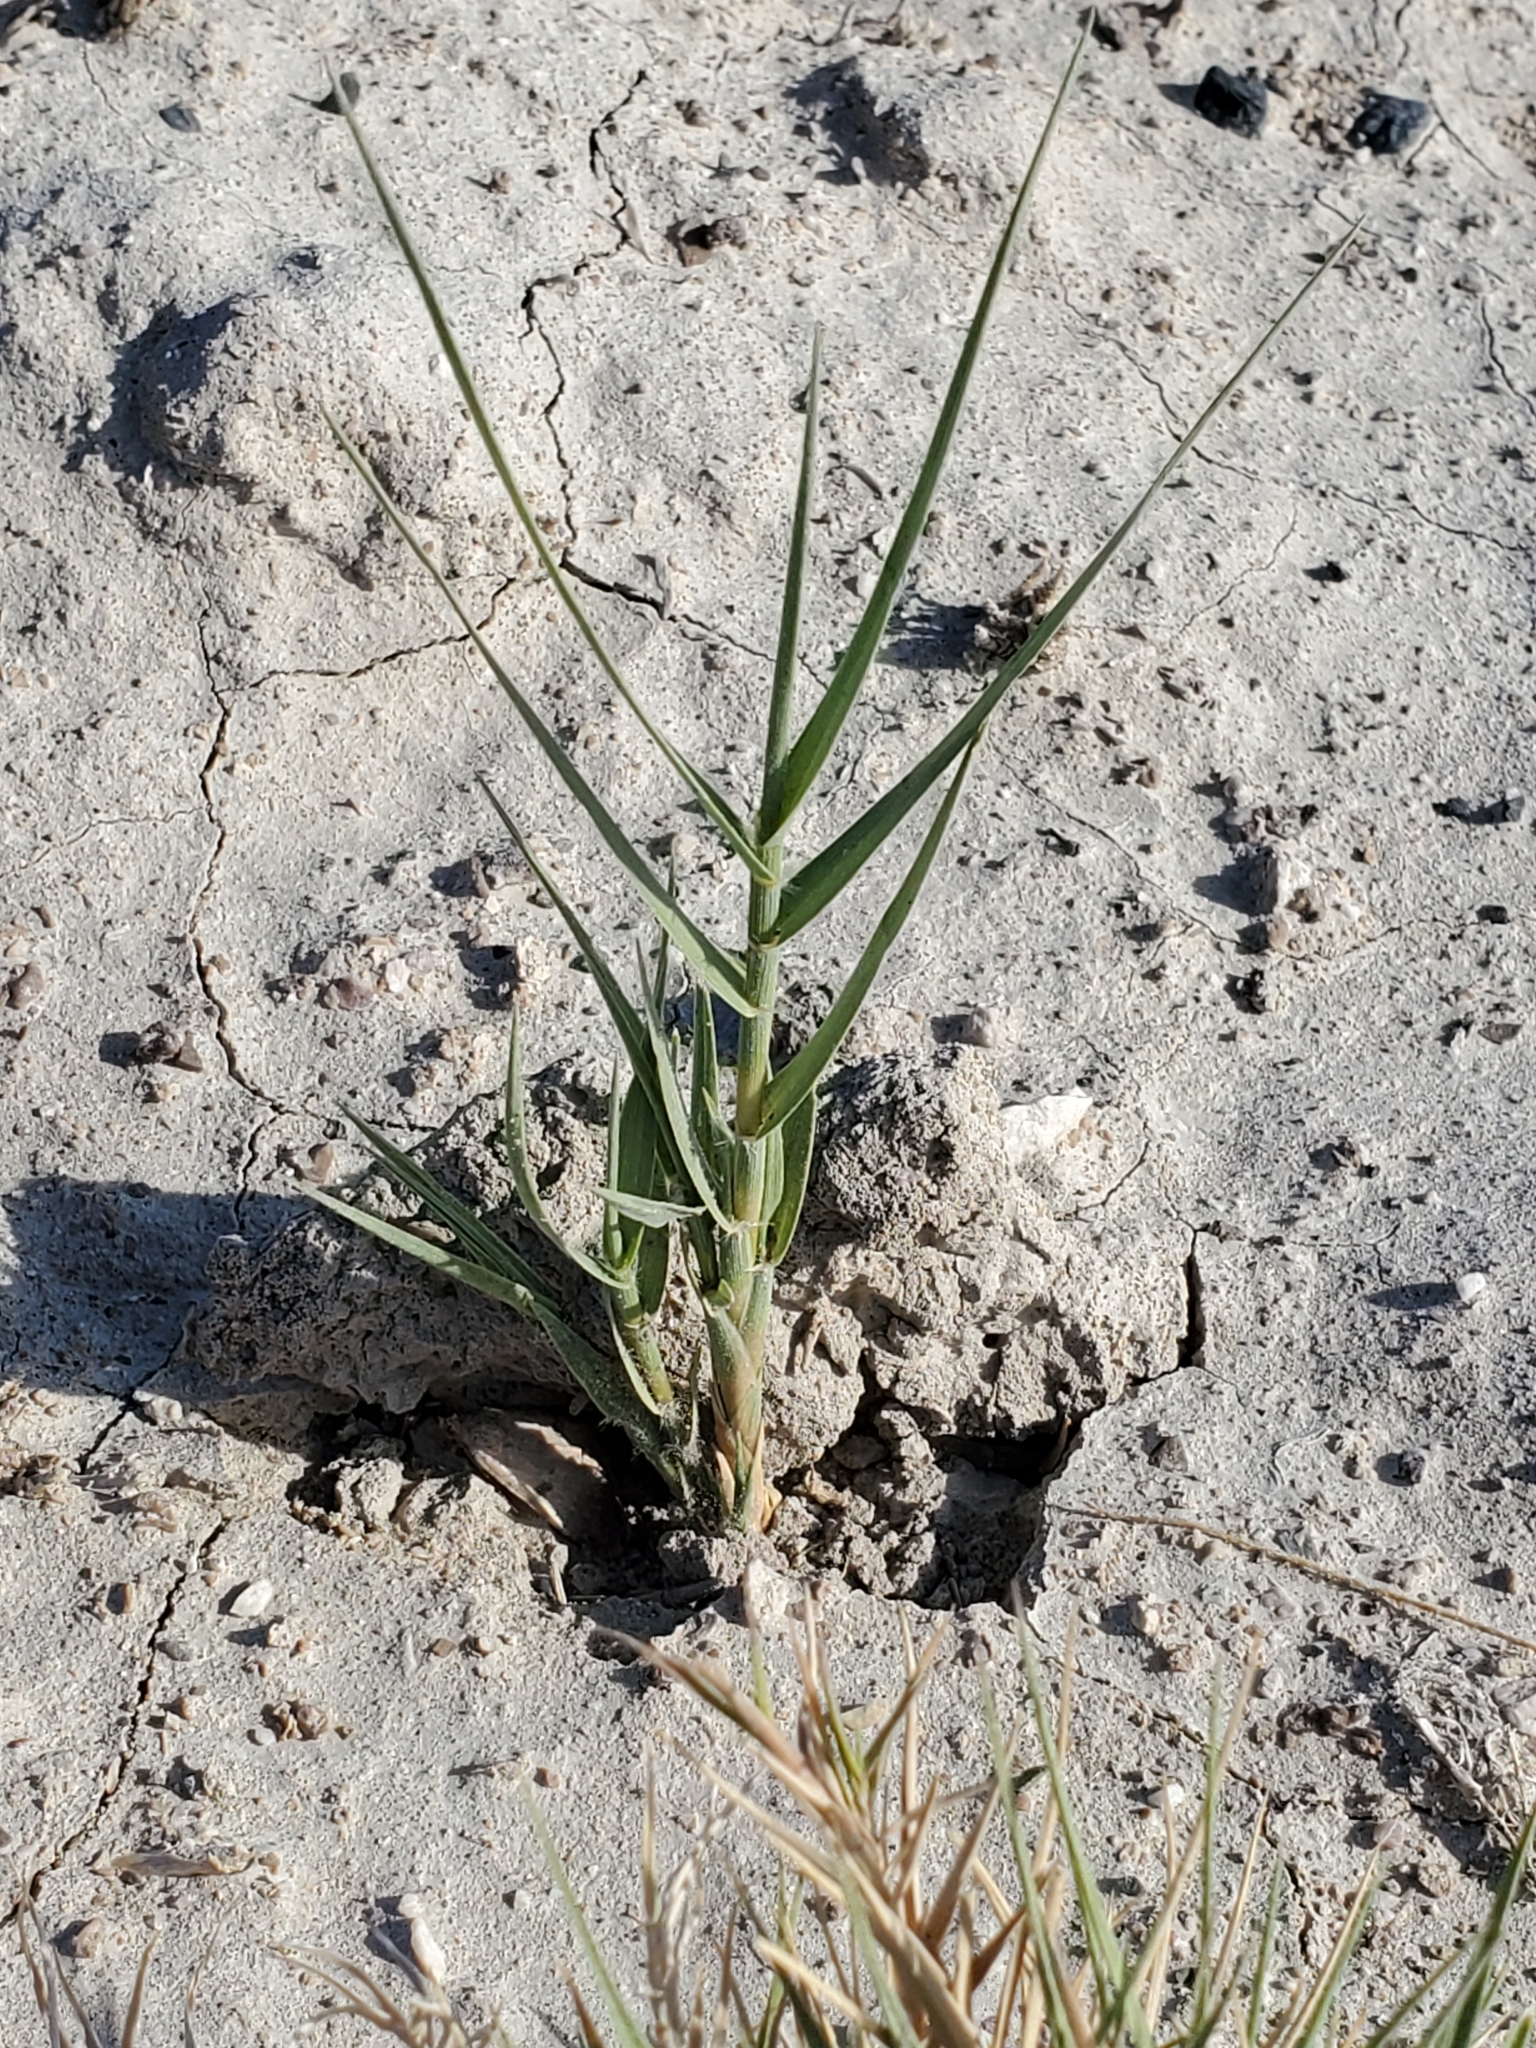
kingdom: Plantae
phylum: Tracheophyta
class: Liliopsida
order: Poales
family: Poaceae
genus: Distichlis
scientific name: Distichlis spicata
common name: Saltgrass
